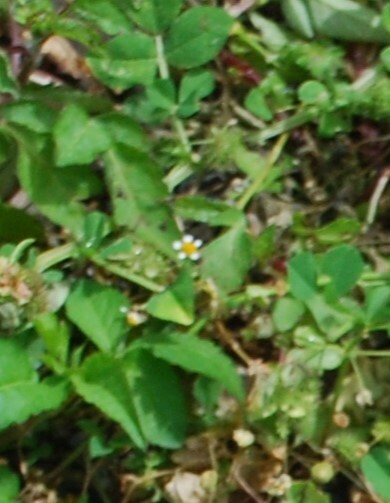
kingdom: Plantae
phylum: Tracheophyta
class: Magnoliopsida
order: Asterales
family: Asteraceae
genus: Galinsoga
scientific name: Galinsoga quadriradiata
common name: Shaggy soldier
